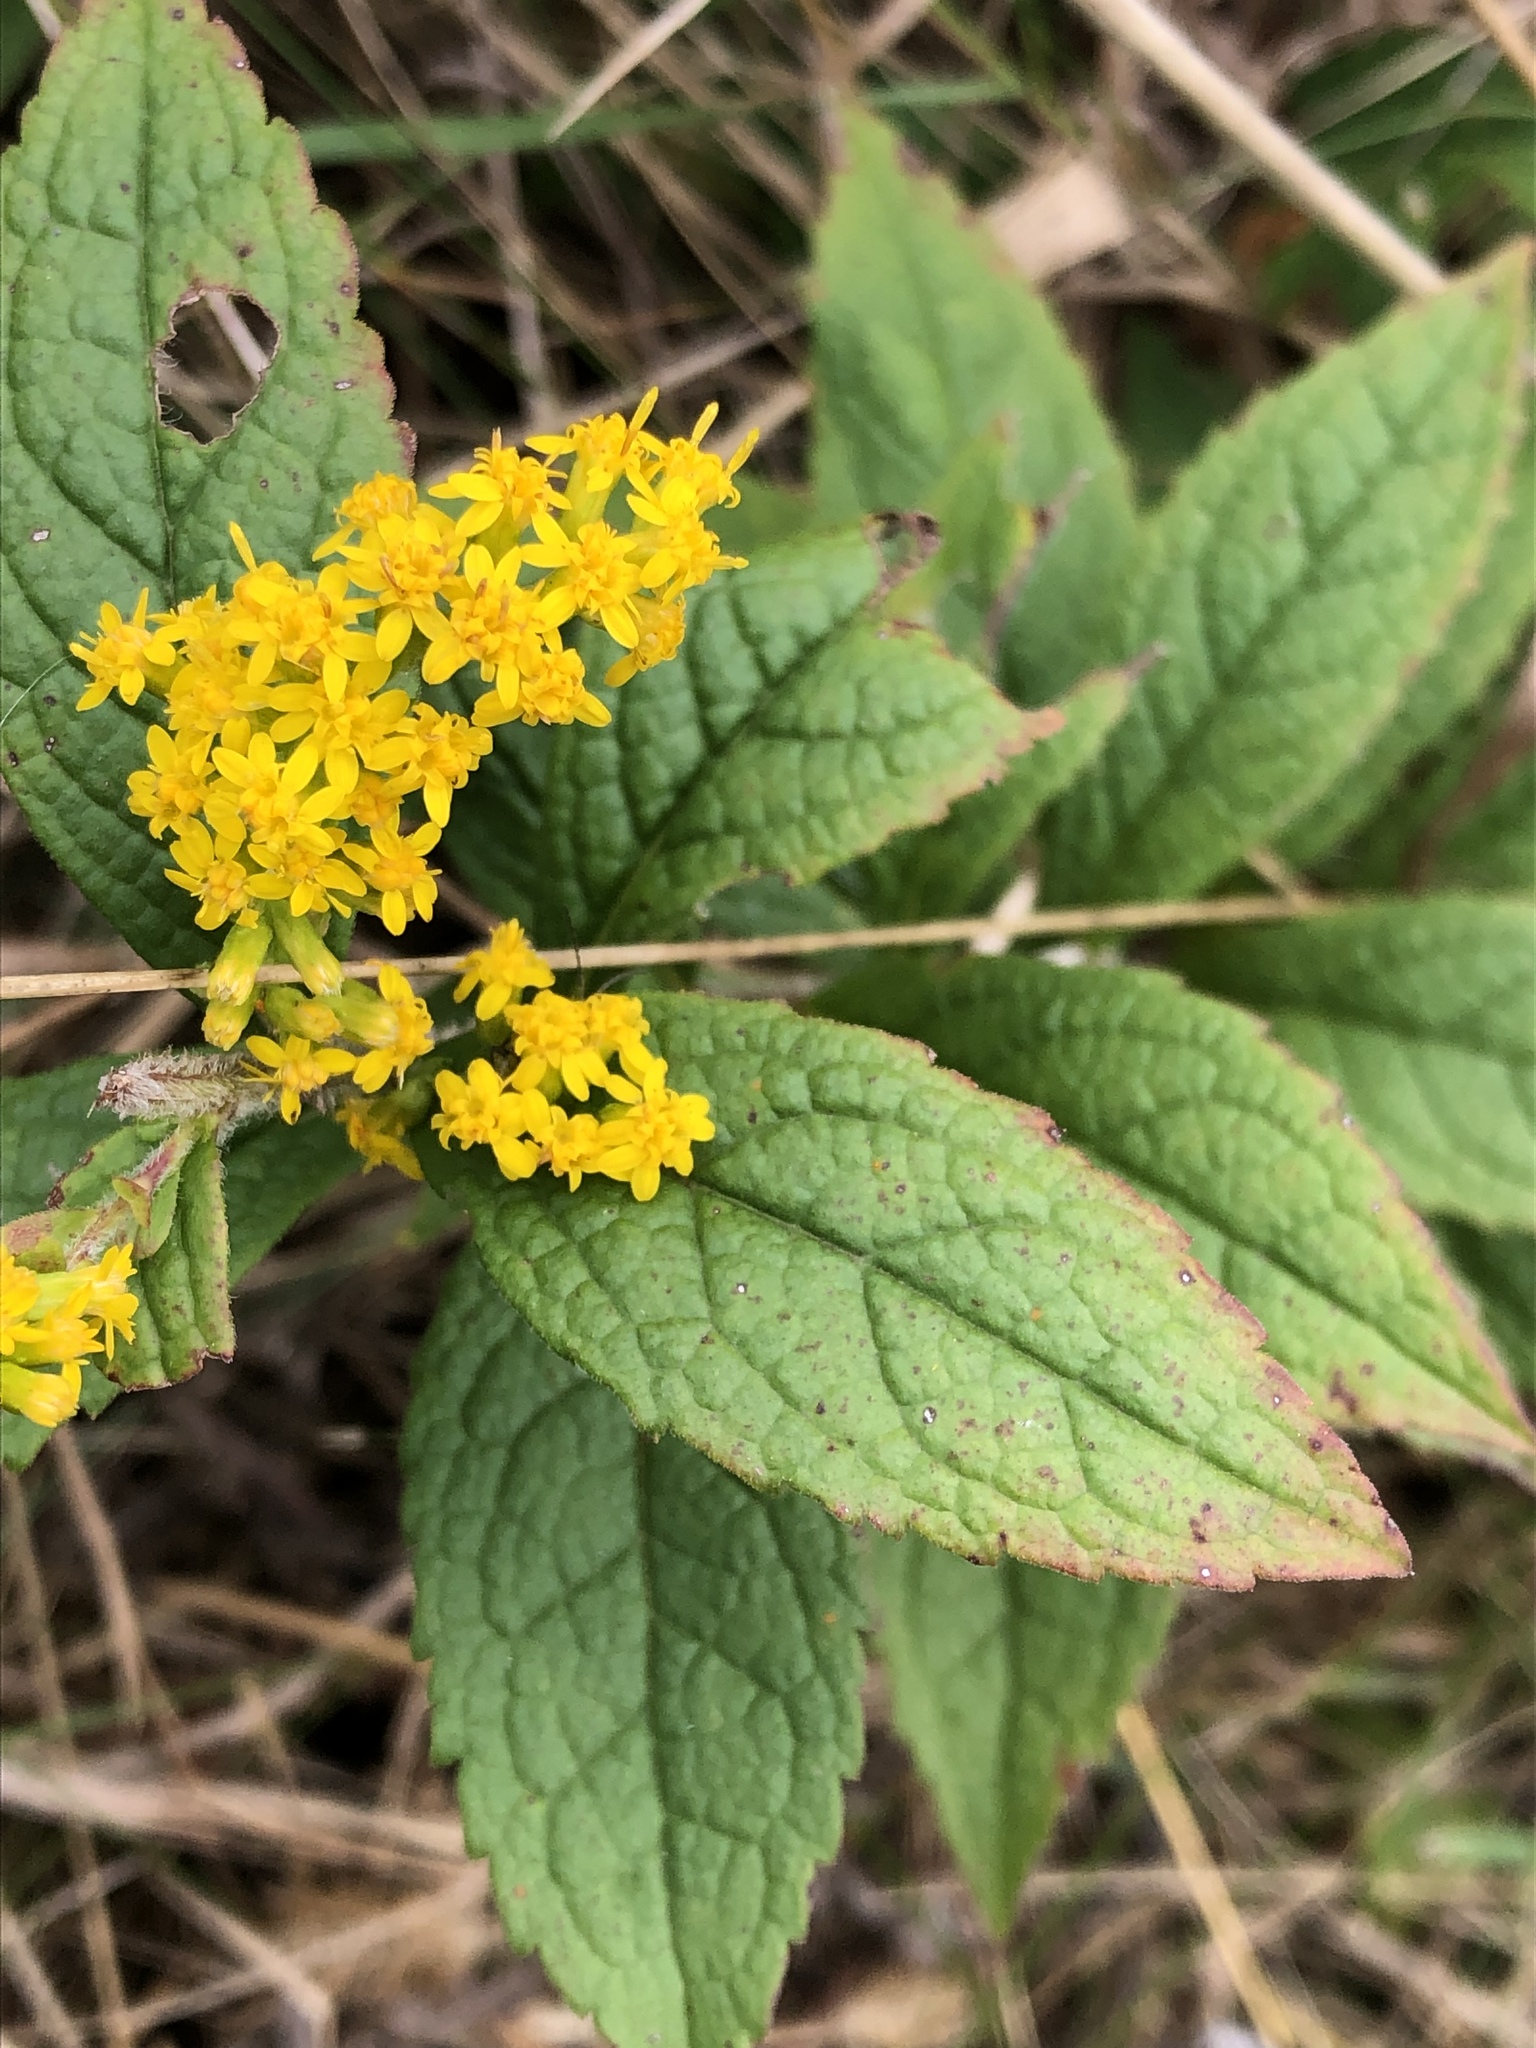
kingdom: Plantae
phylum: Tracheophyta
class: Magnoliopsida
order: Asterales
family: Asteraceae
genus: Solidago
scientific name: Solidago rugosa
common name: Rough-stemmed goldenrod
